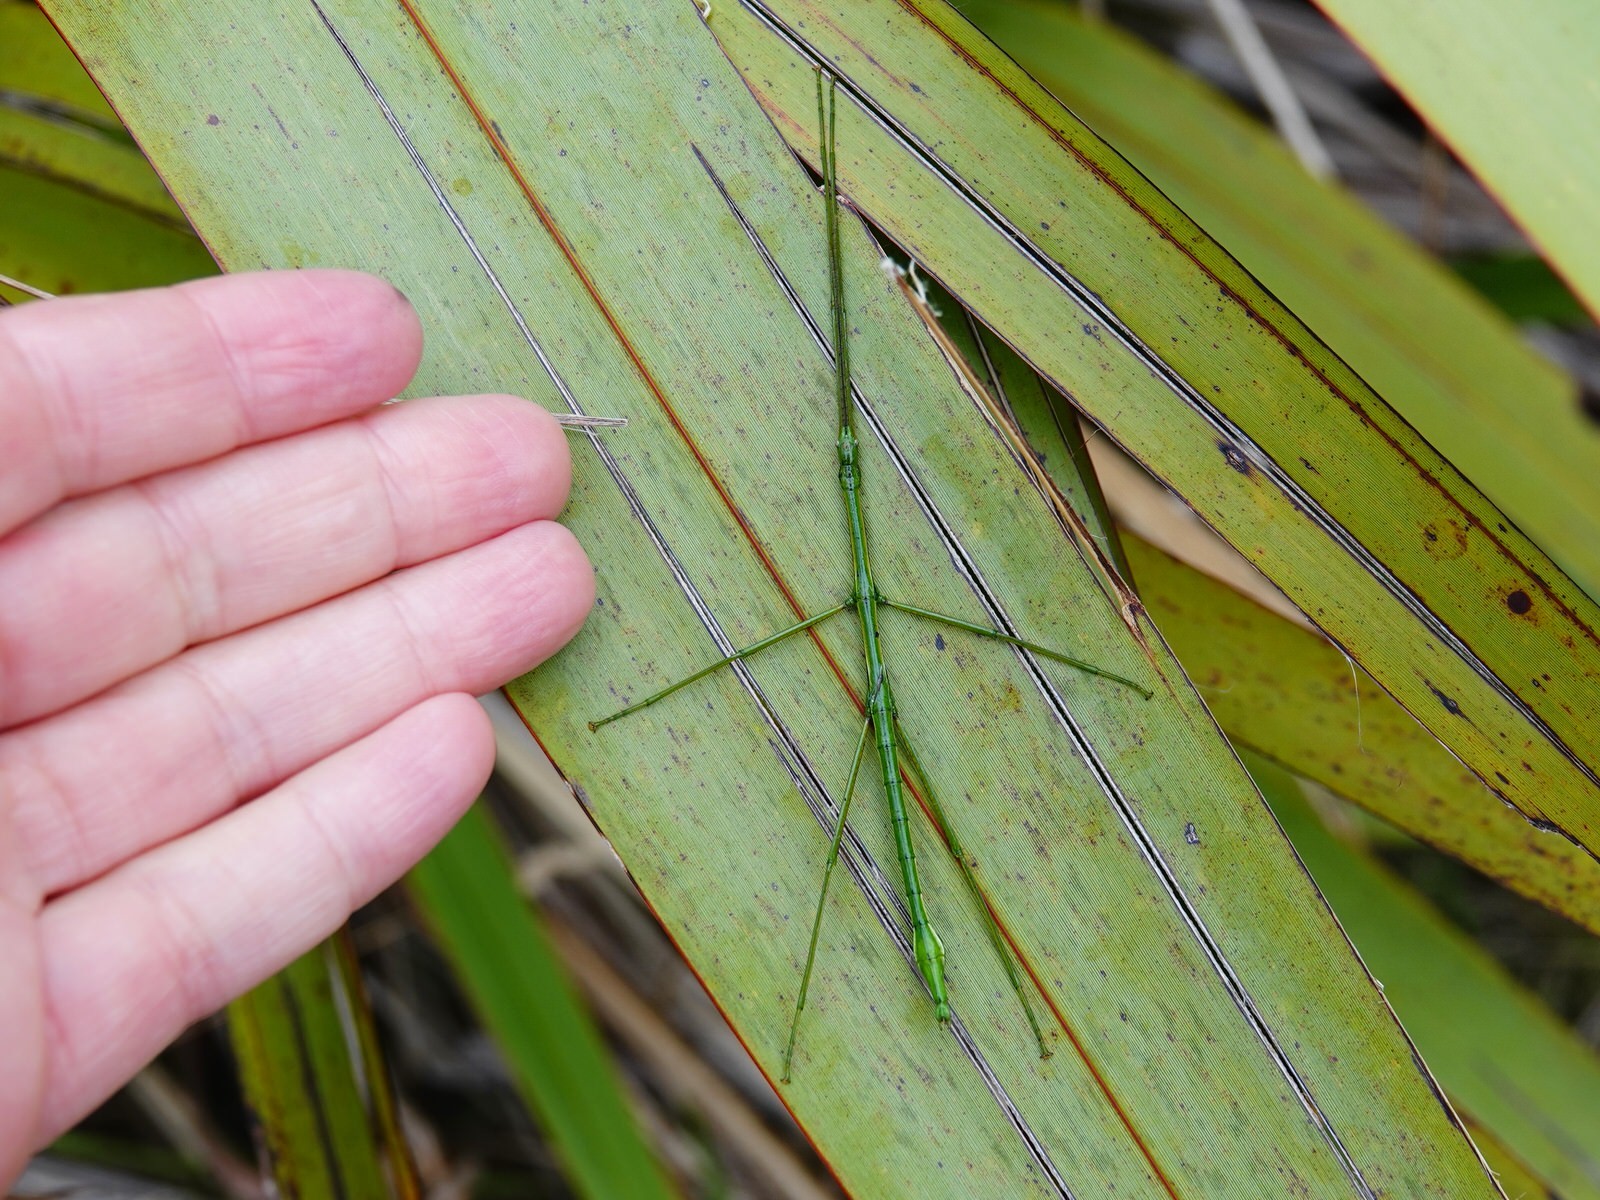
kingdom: Animalia
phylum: Arthropoda
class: Insecta
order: Phasmida
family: Phasmatidae
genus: Clitarchus
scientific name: Clitarchus hookeri
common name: Smooth stick insect
